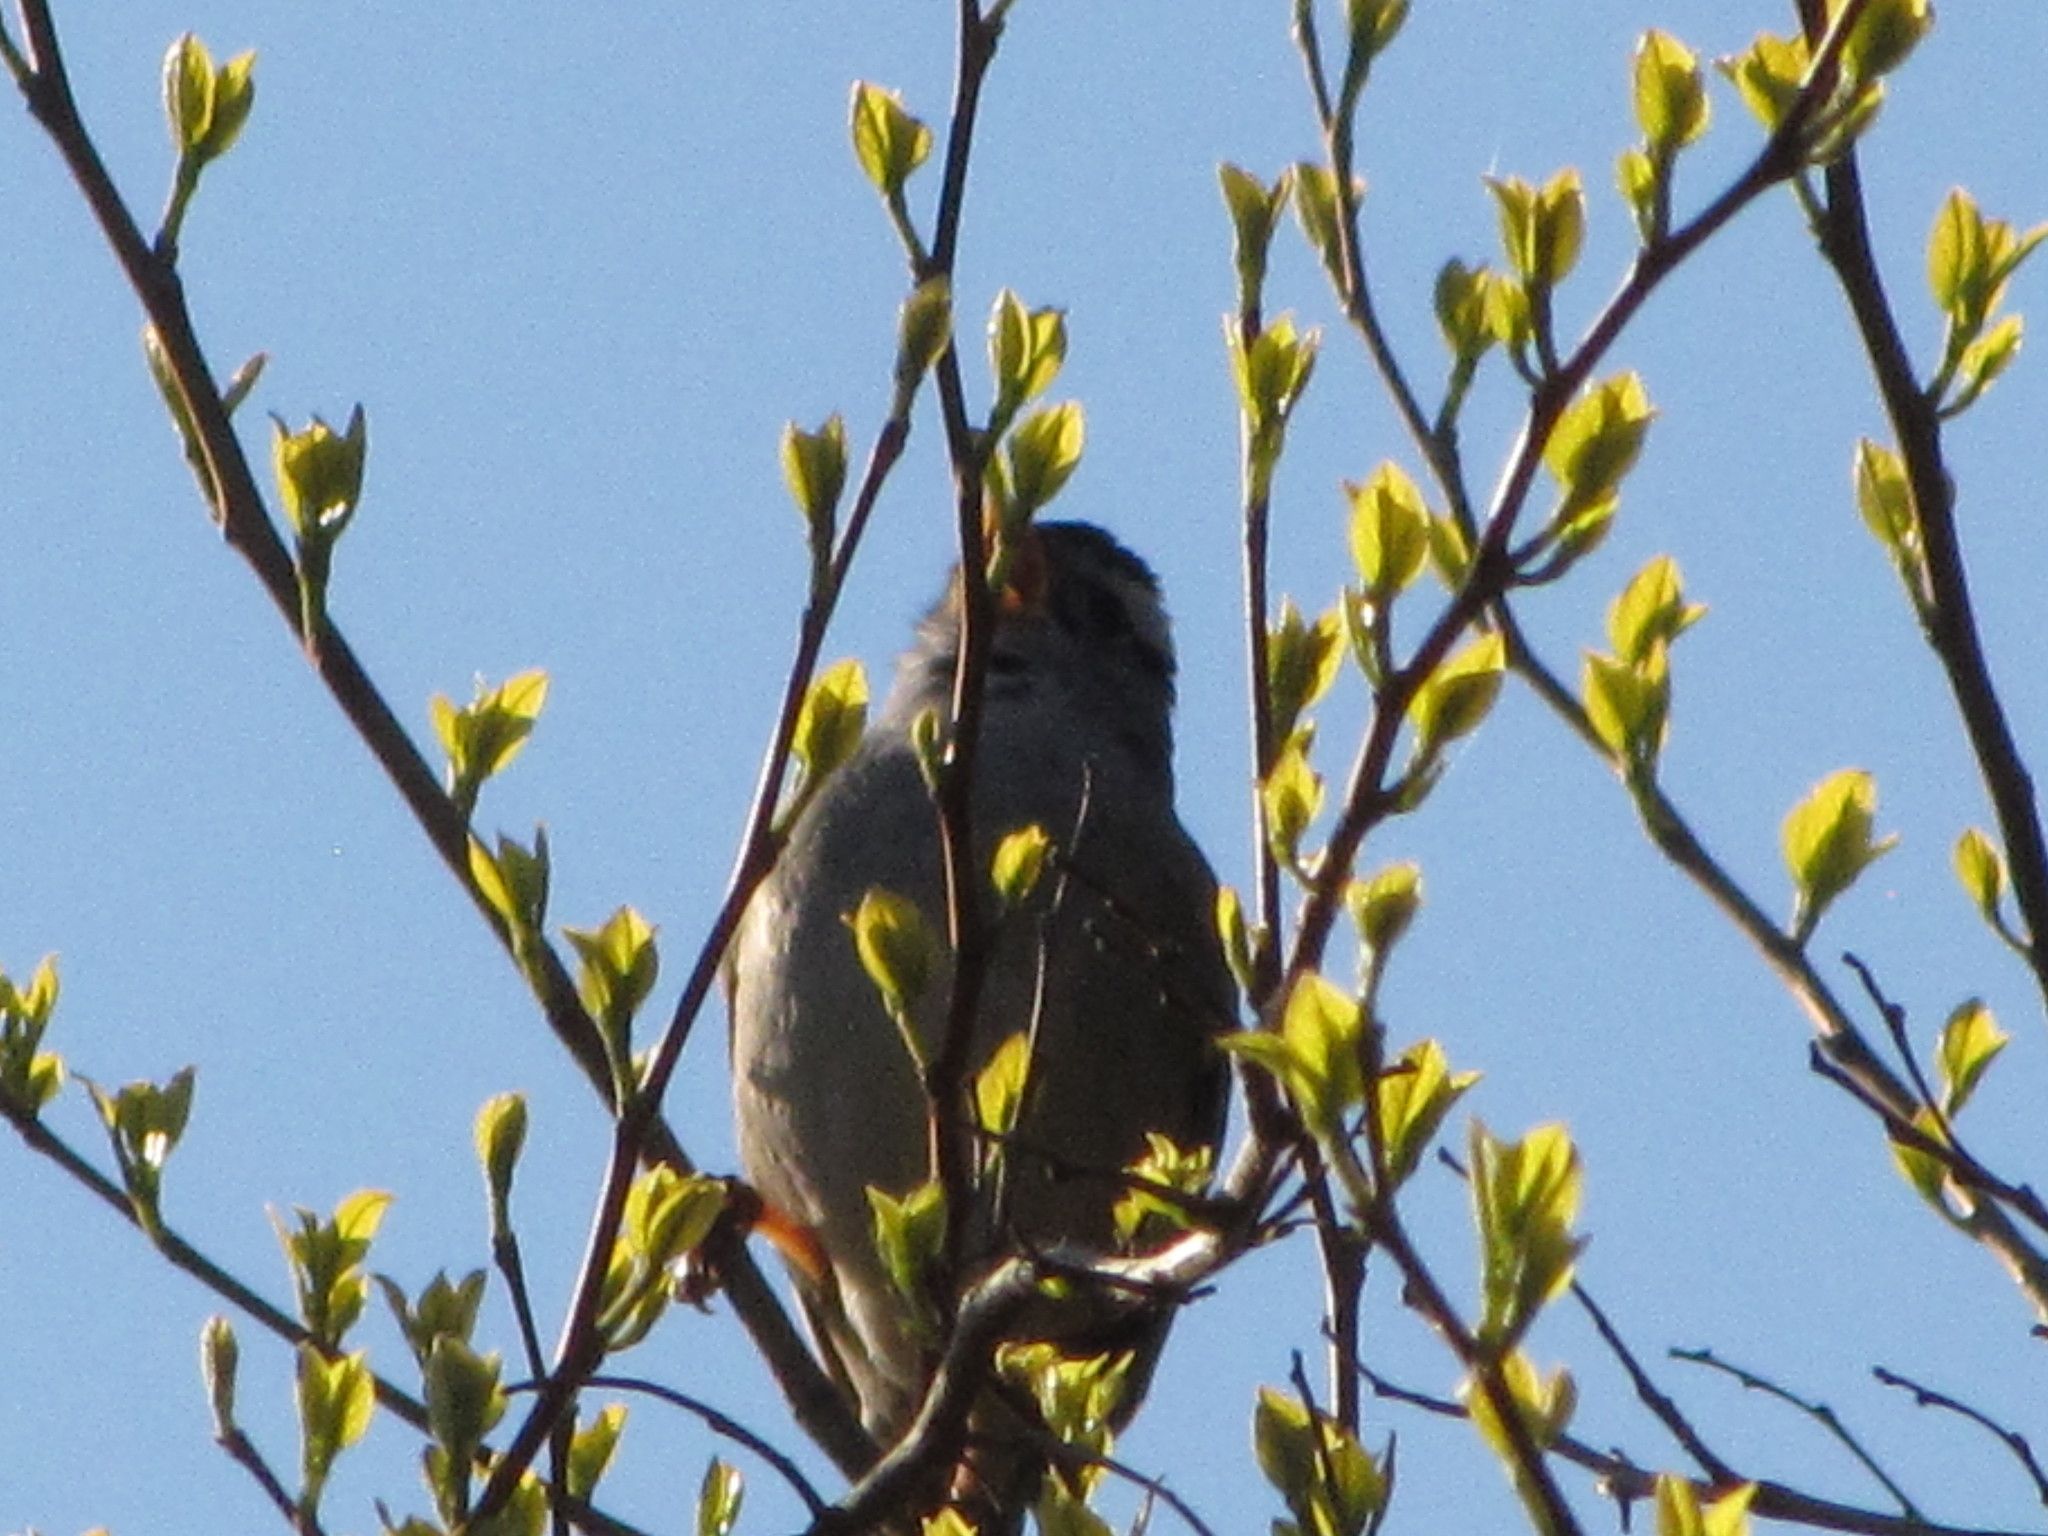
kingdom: Animalia
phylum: Chordata
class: Aves
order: Passeriformes
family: Passerellidae
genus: Zonotrichia
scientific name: Zonotrichia leucophrys
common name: White-crowned sparrow
